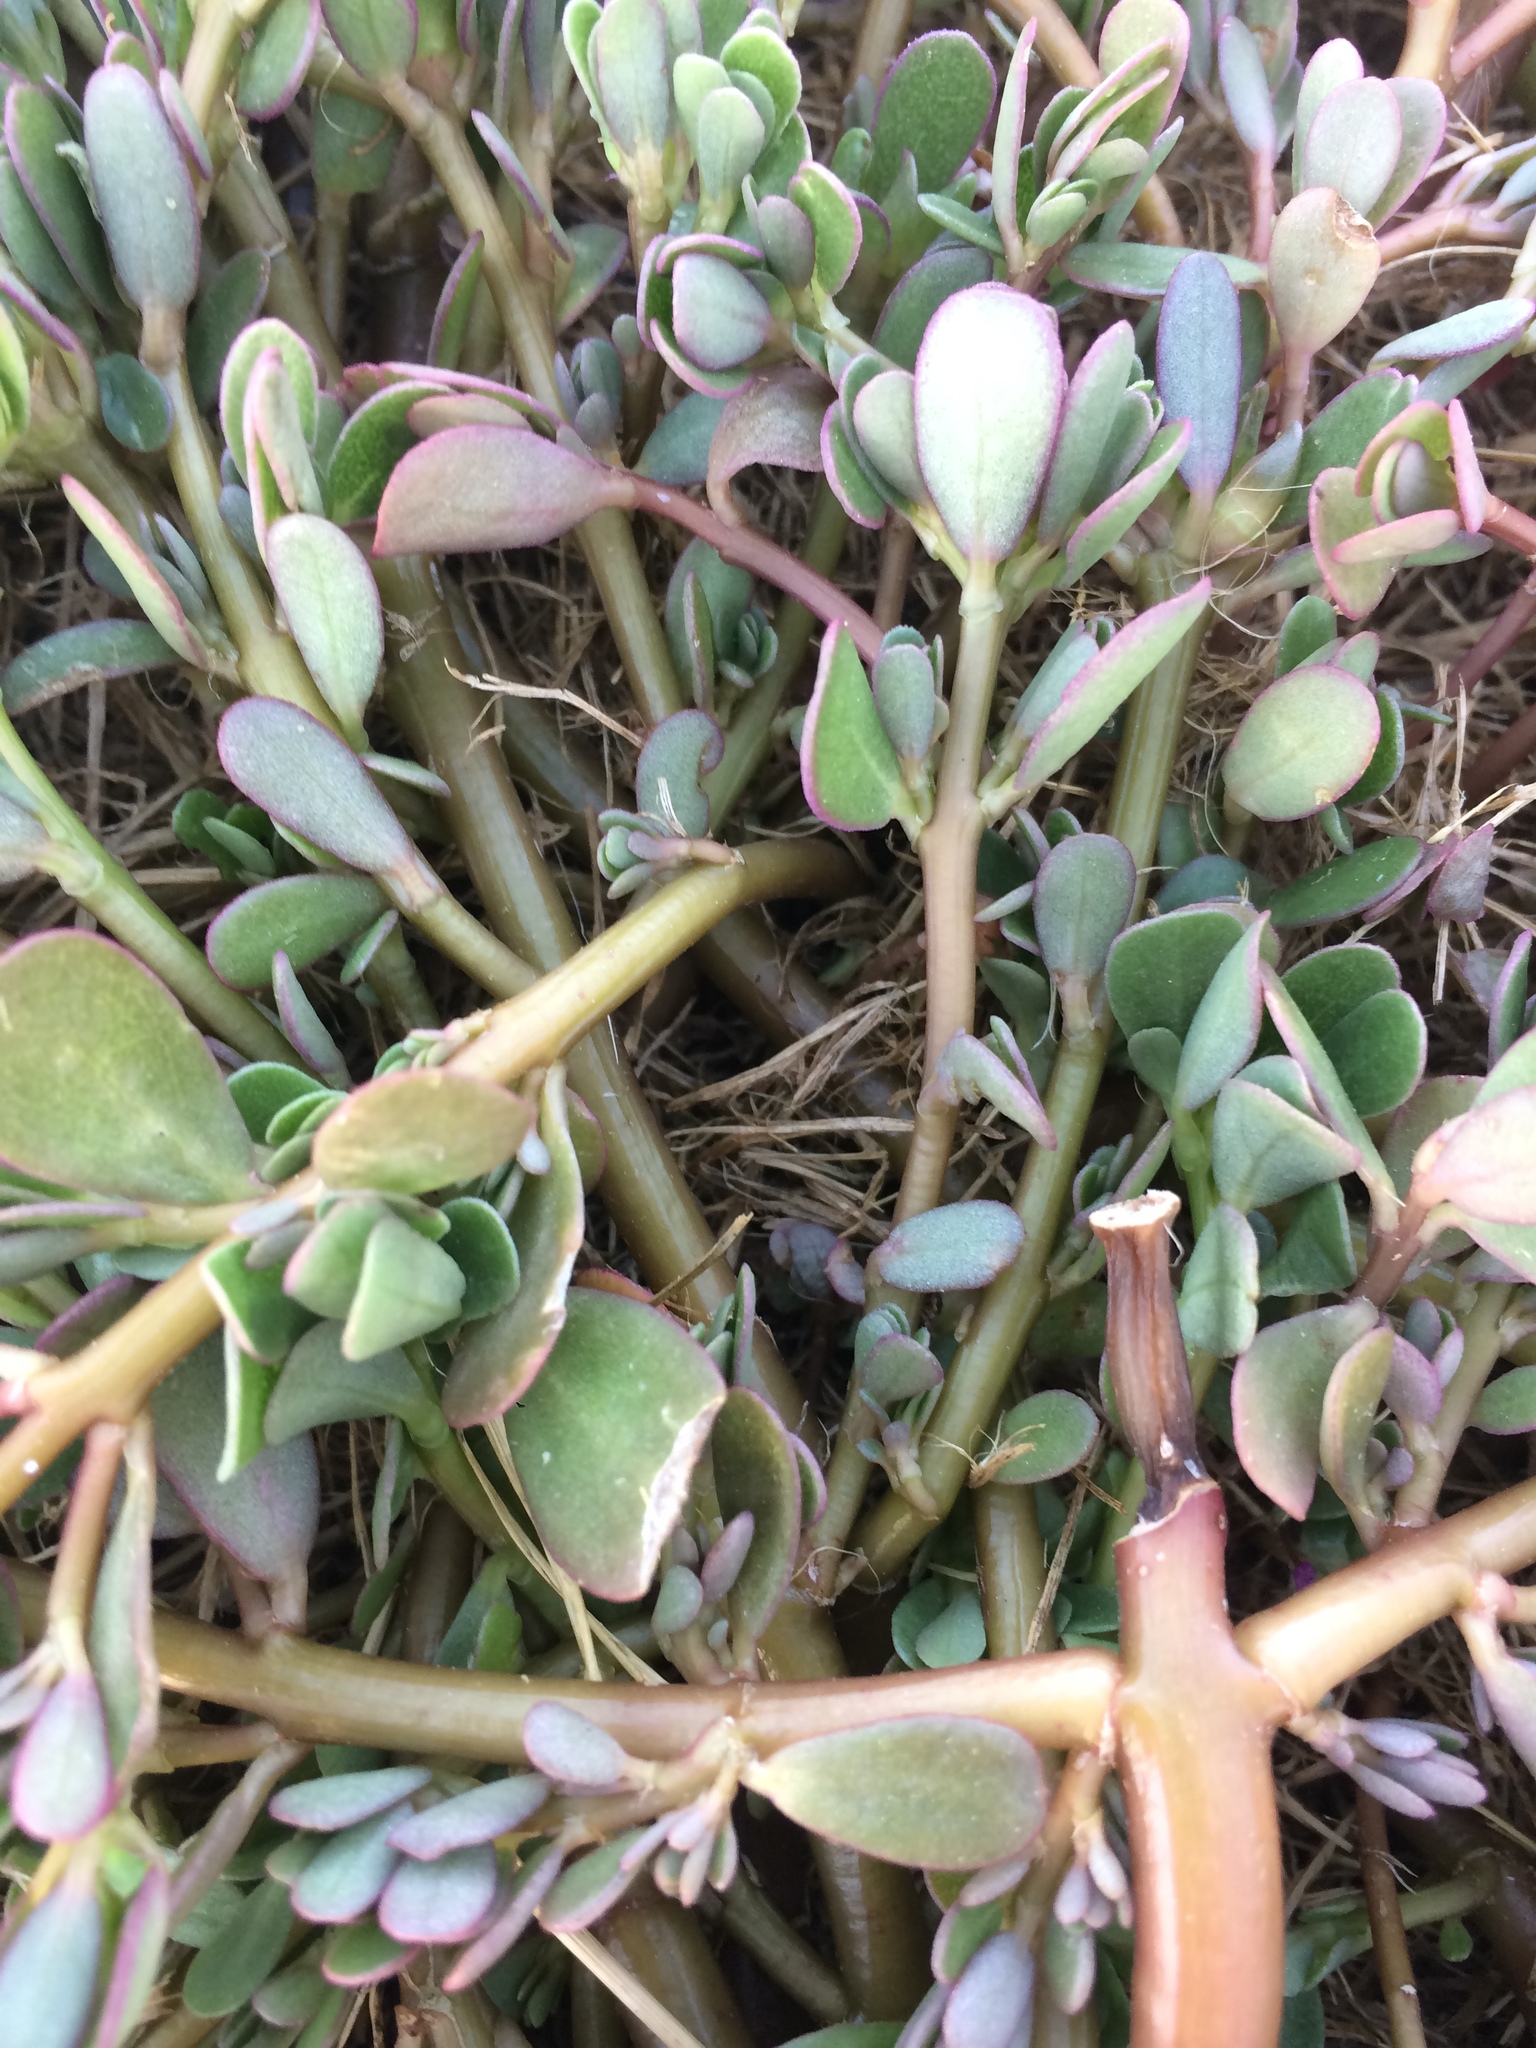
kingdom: Plantae
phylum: Tracheophyta
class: Magnoliopsida
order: Caryophyllales
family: Portulacaceae
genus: Portulaca
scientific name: Portulaca oleracea
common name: Common purslane
